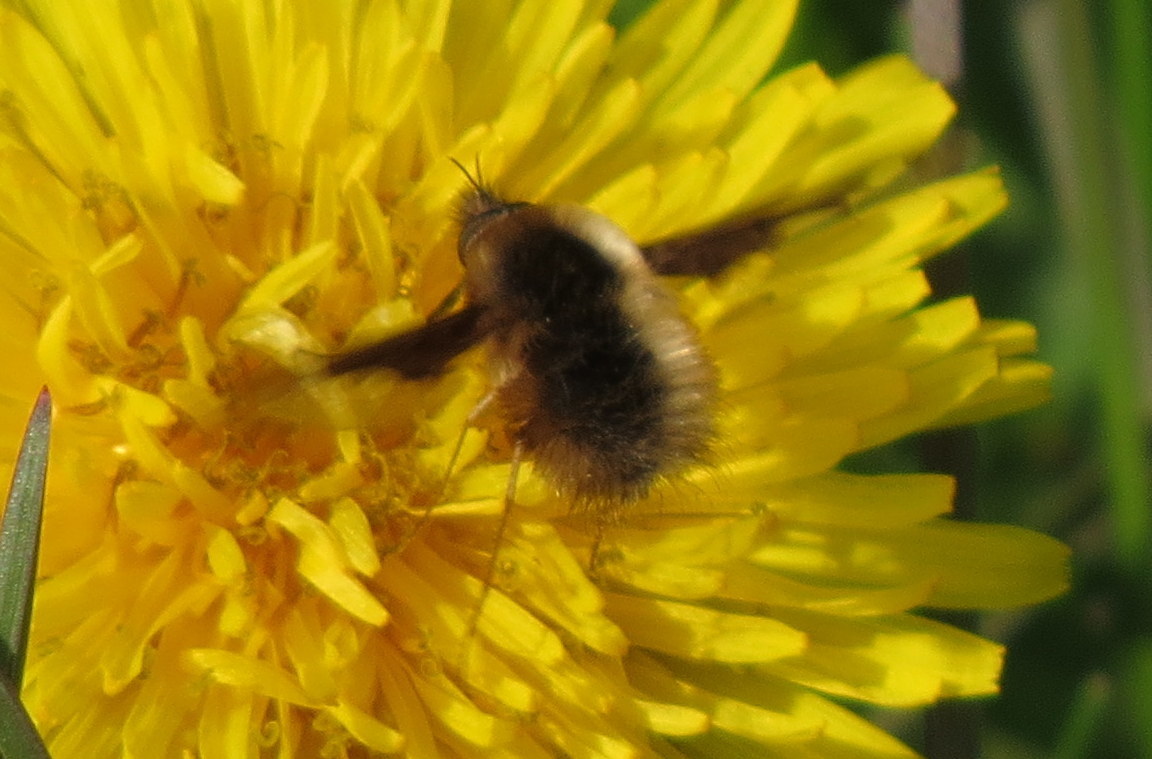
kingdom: Animalia
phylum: Arthropoda
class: Insecta
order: Diptera
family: Bombyliidae
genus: Bombylius
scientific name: Bombylius major
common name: Bee fly
